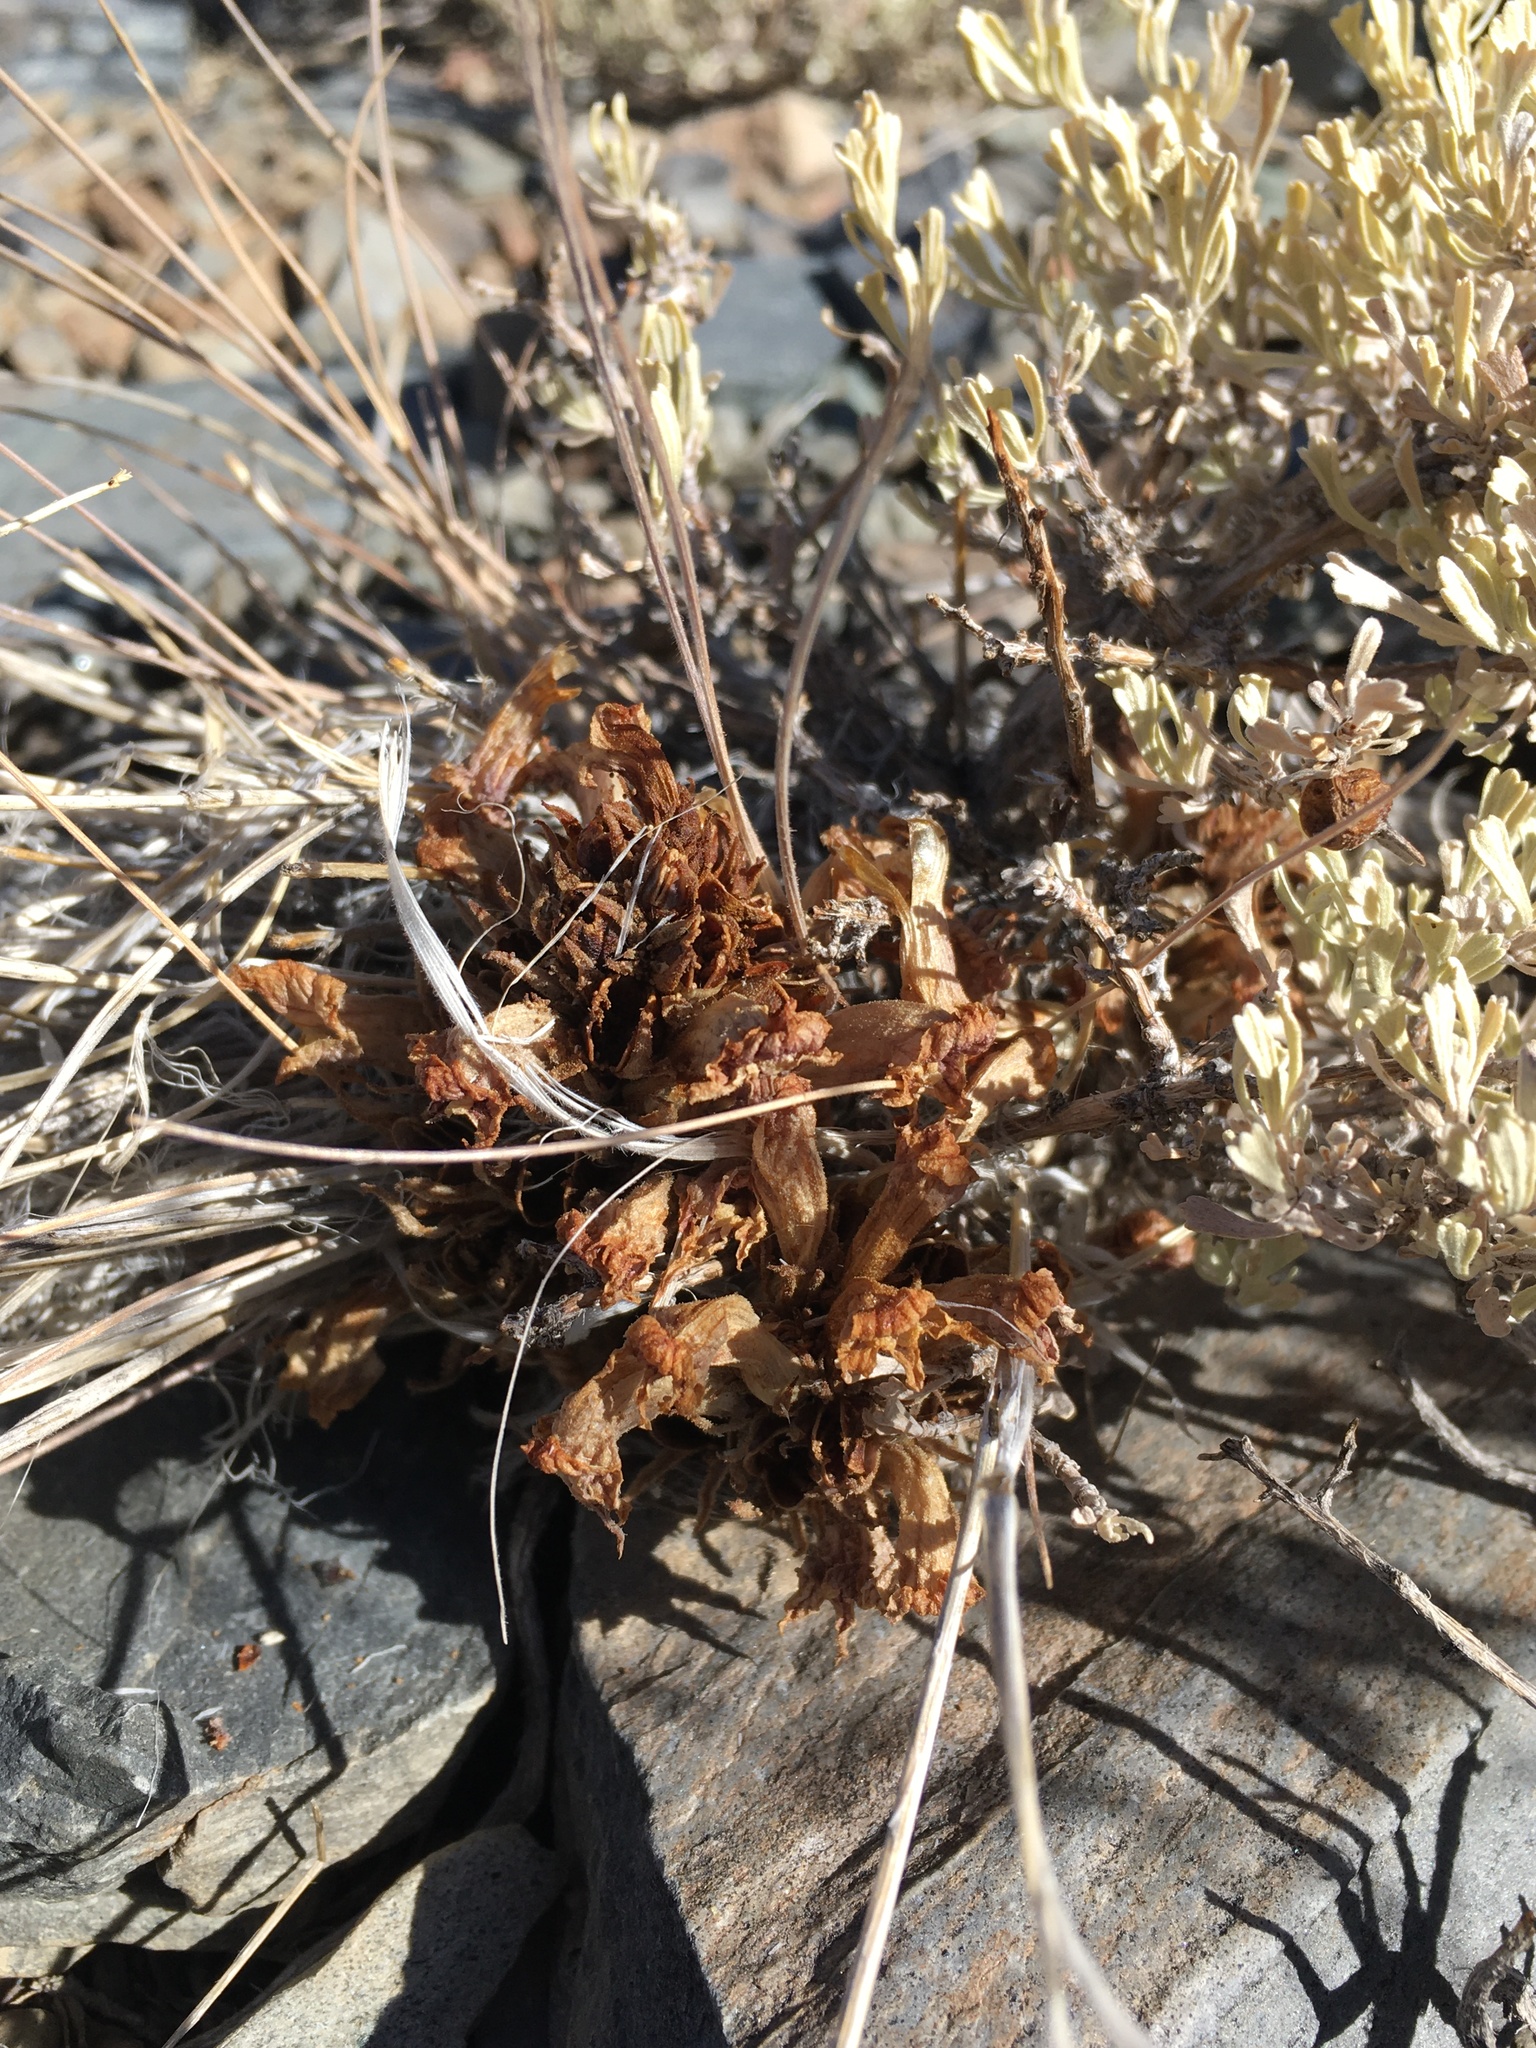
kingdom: Plantae
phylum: Tracheophyta
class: Magnoliopsida
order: Lamiales
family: Orobanchaceae
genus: Aphyllon
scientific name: Aphyllon corymbosum
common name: Flat-top broomrape
